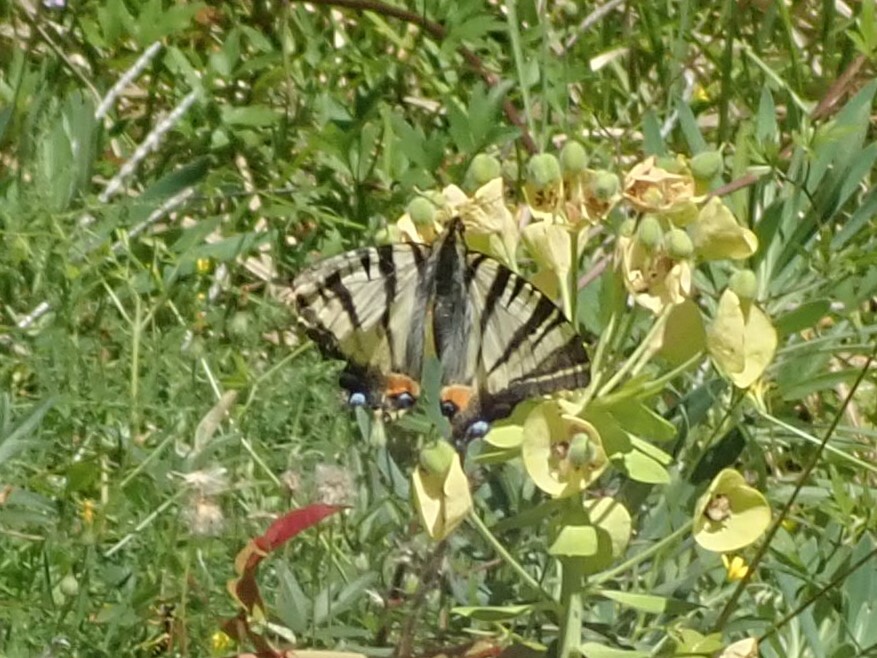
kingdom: Animalia
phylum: Arthropoda
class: Insecta
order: Lepidoptera
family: Papilionidae
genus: Iphiclides
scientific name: Iphiclides podalirius
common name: Scarce swallowtail
